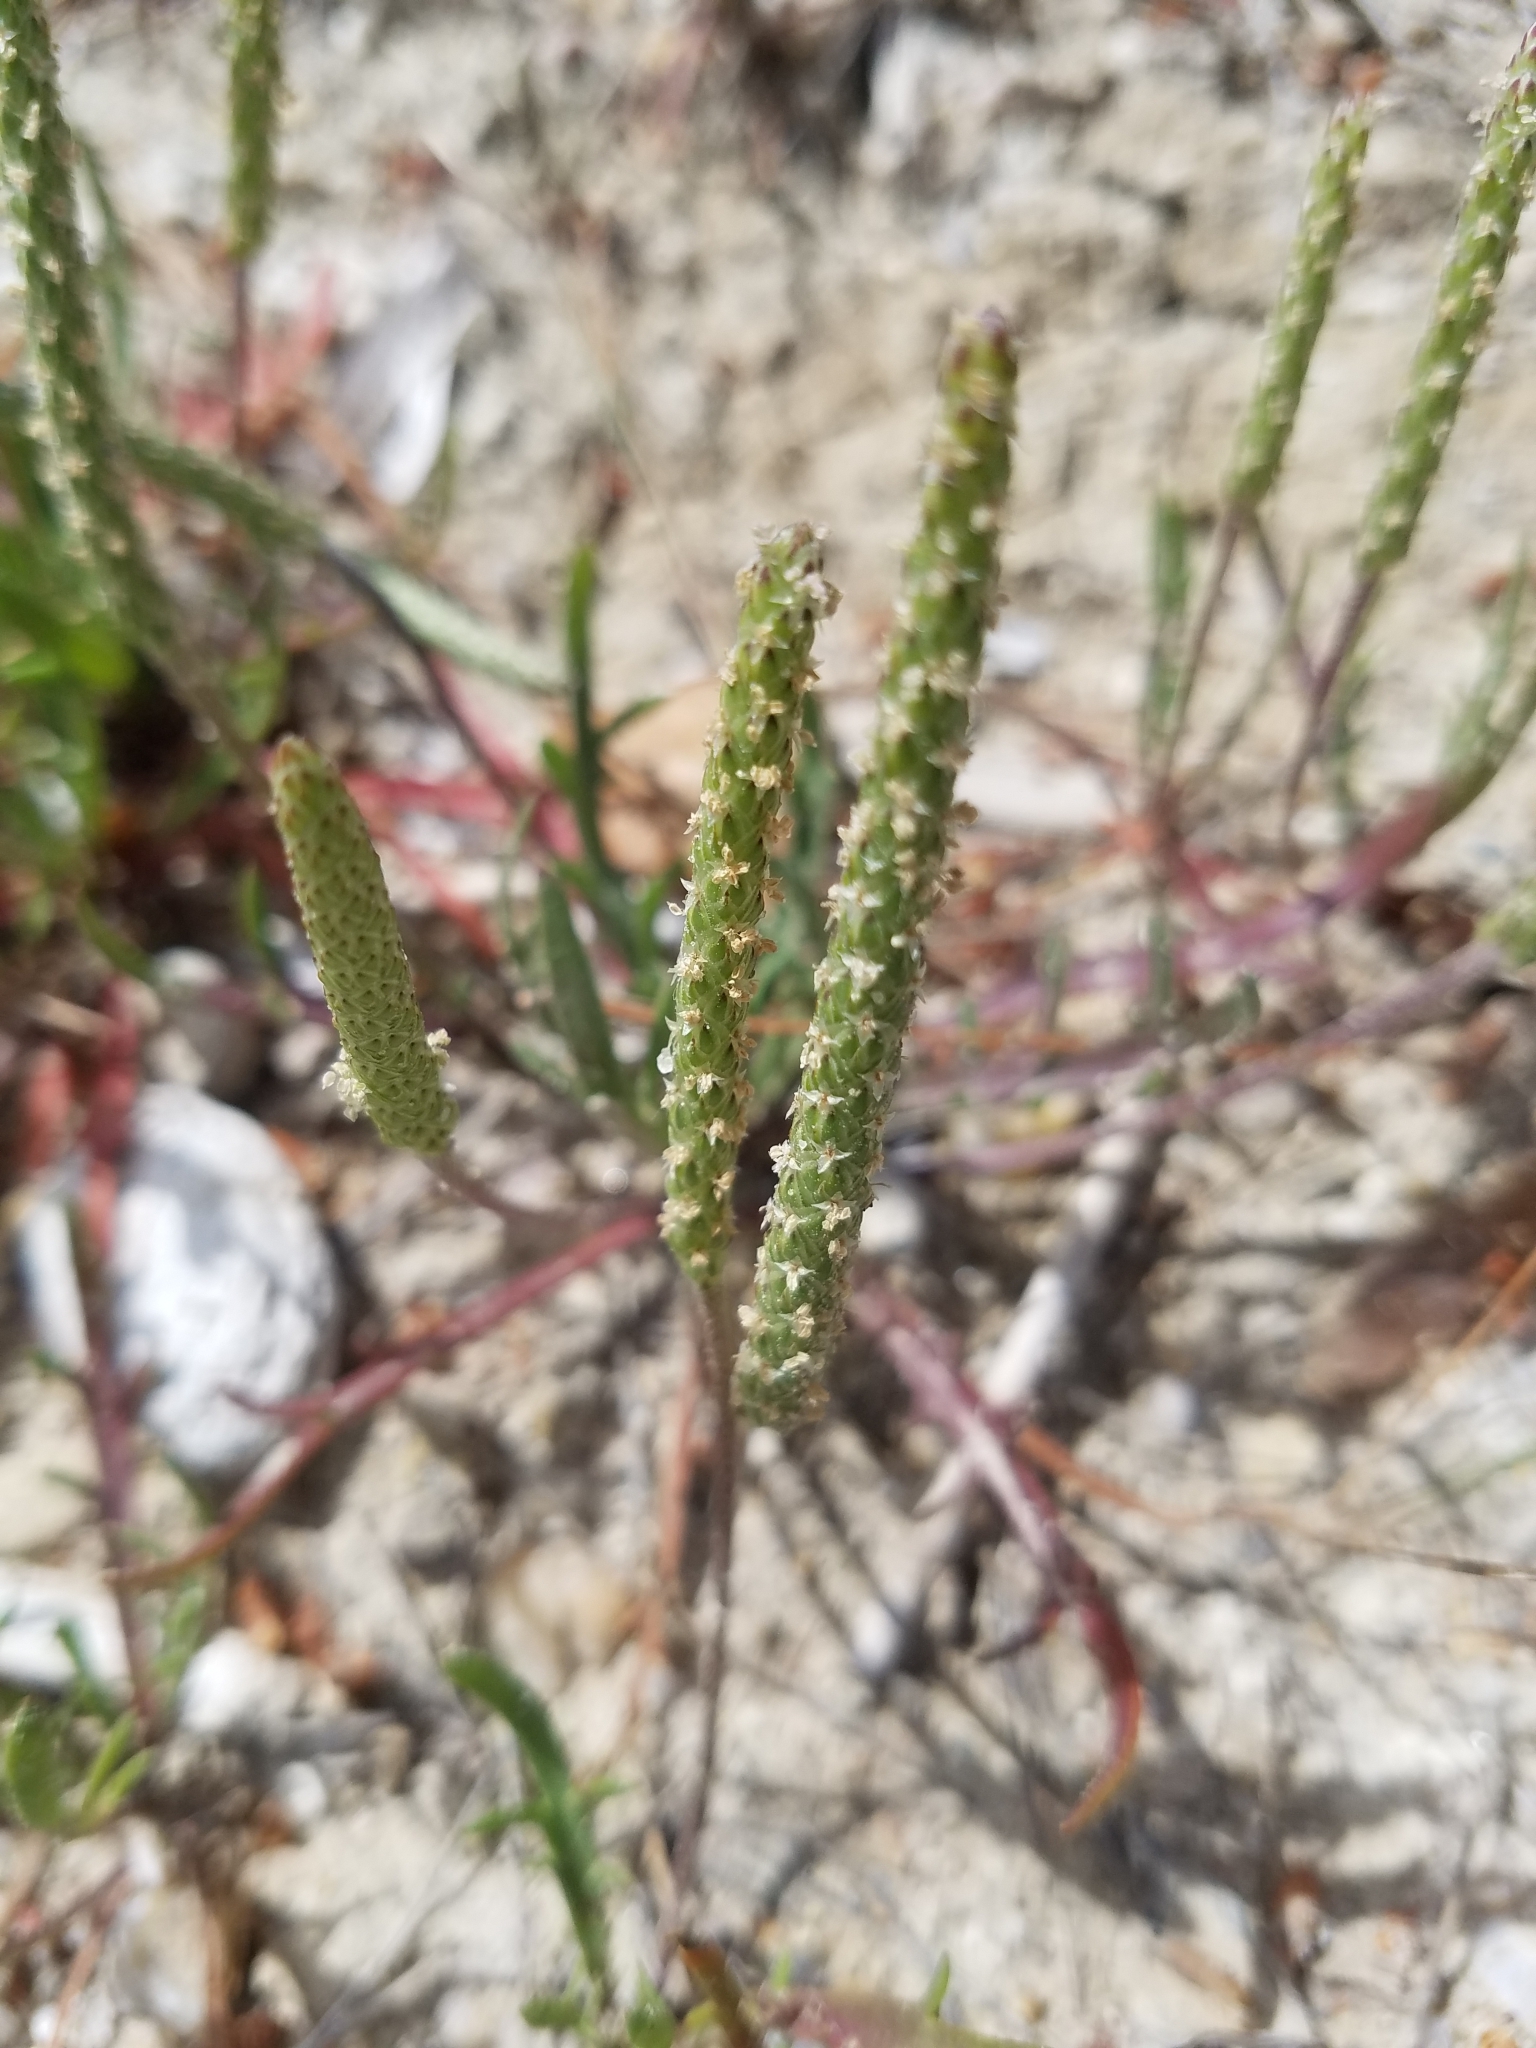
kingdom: Plantae
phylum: Tracheophyta
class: Magnoliopsida
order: Lamiales
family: Plantaginaceae
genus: Plantago
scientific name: Plantago coronopus
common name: Buck's-horn plantain
